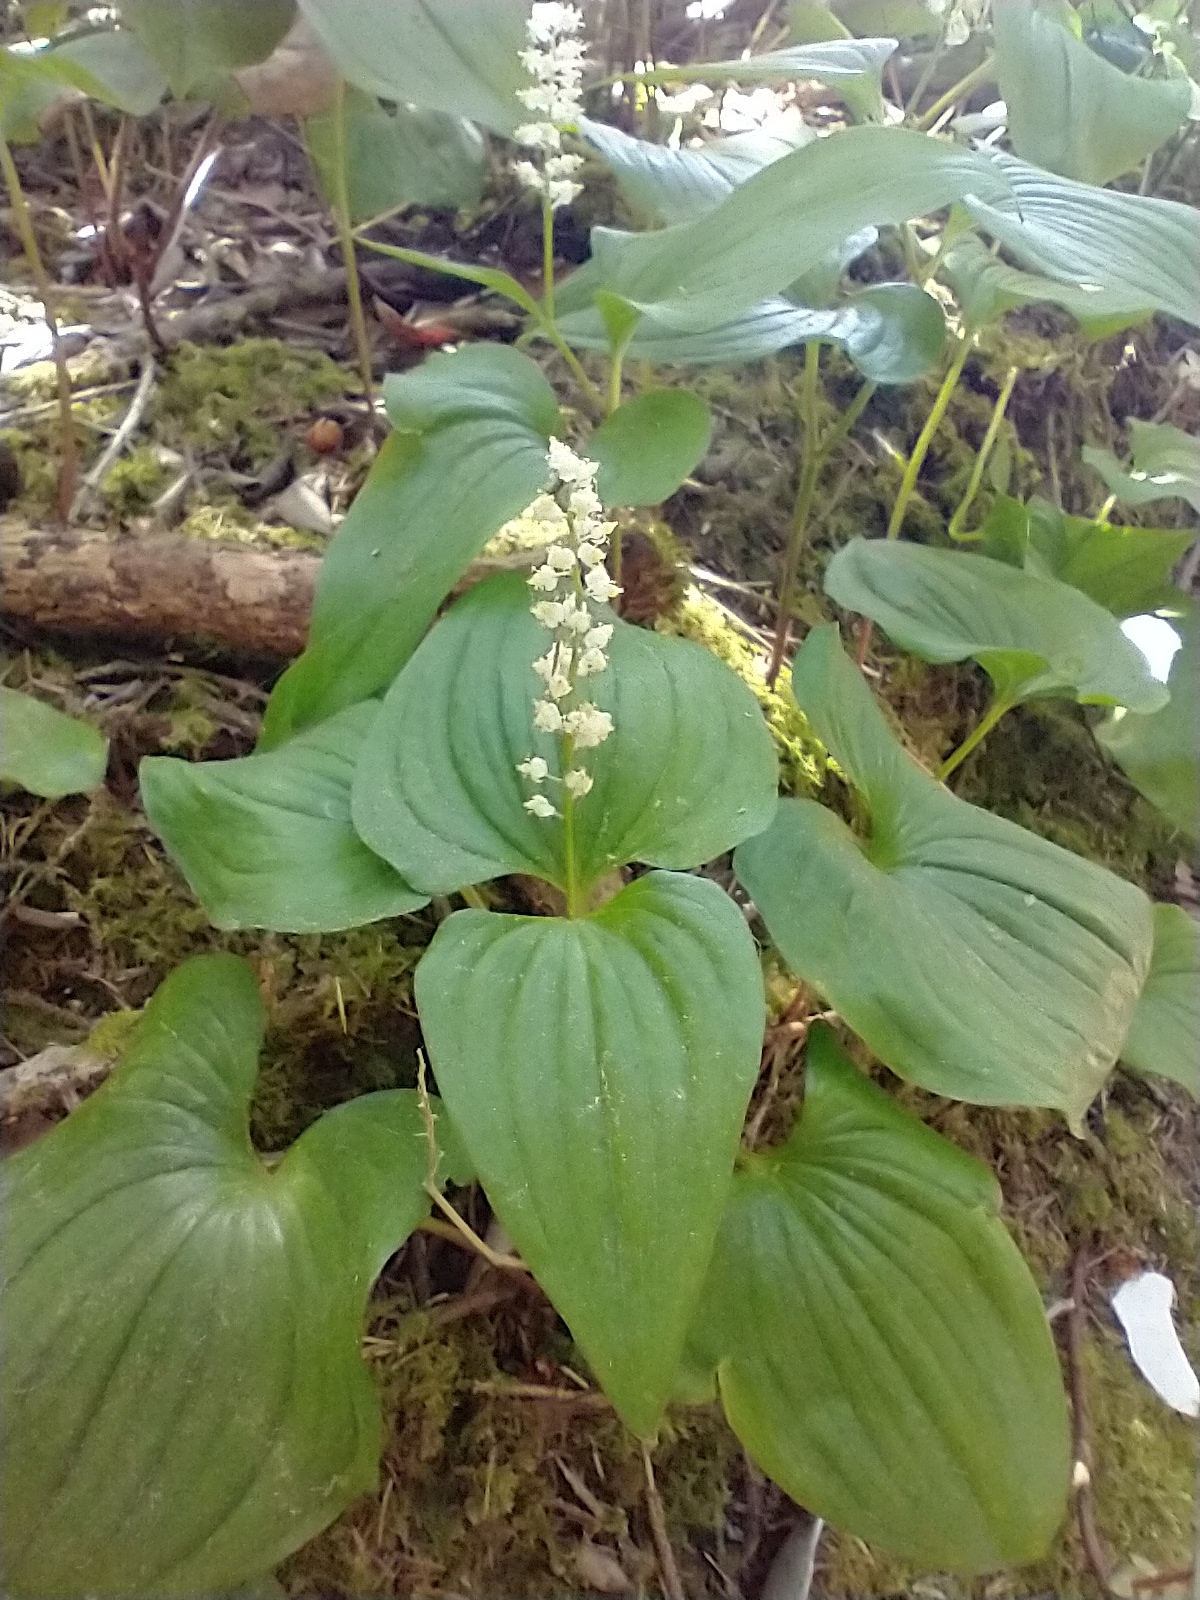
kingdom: Plantae
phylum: Tracheophyta
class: Liliopsida
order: Asparagales
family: Asparagaceae
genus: Maianthemum
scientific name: Maianthemum dilatatum
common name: False lily-of-the-valley
